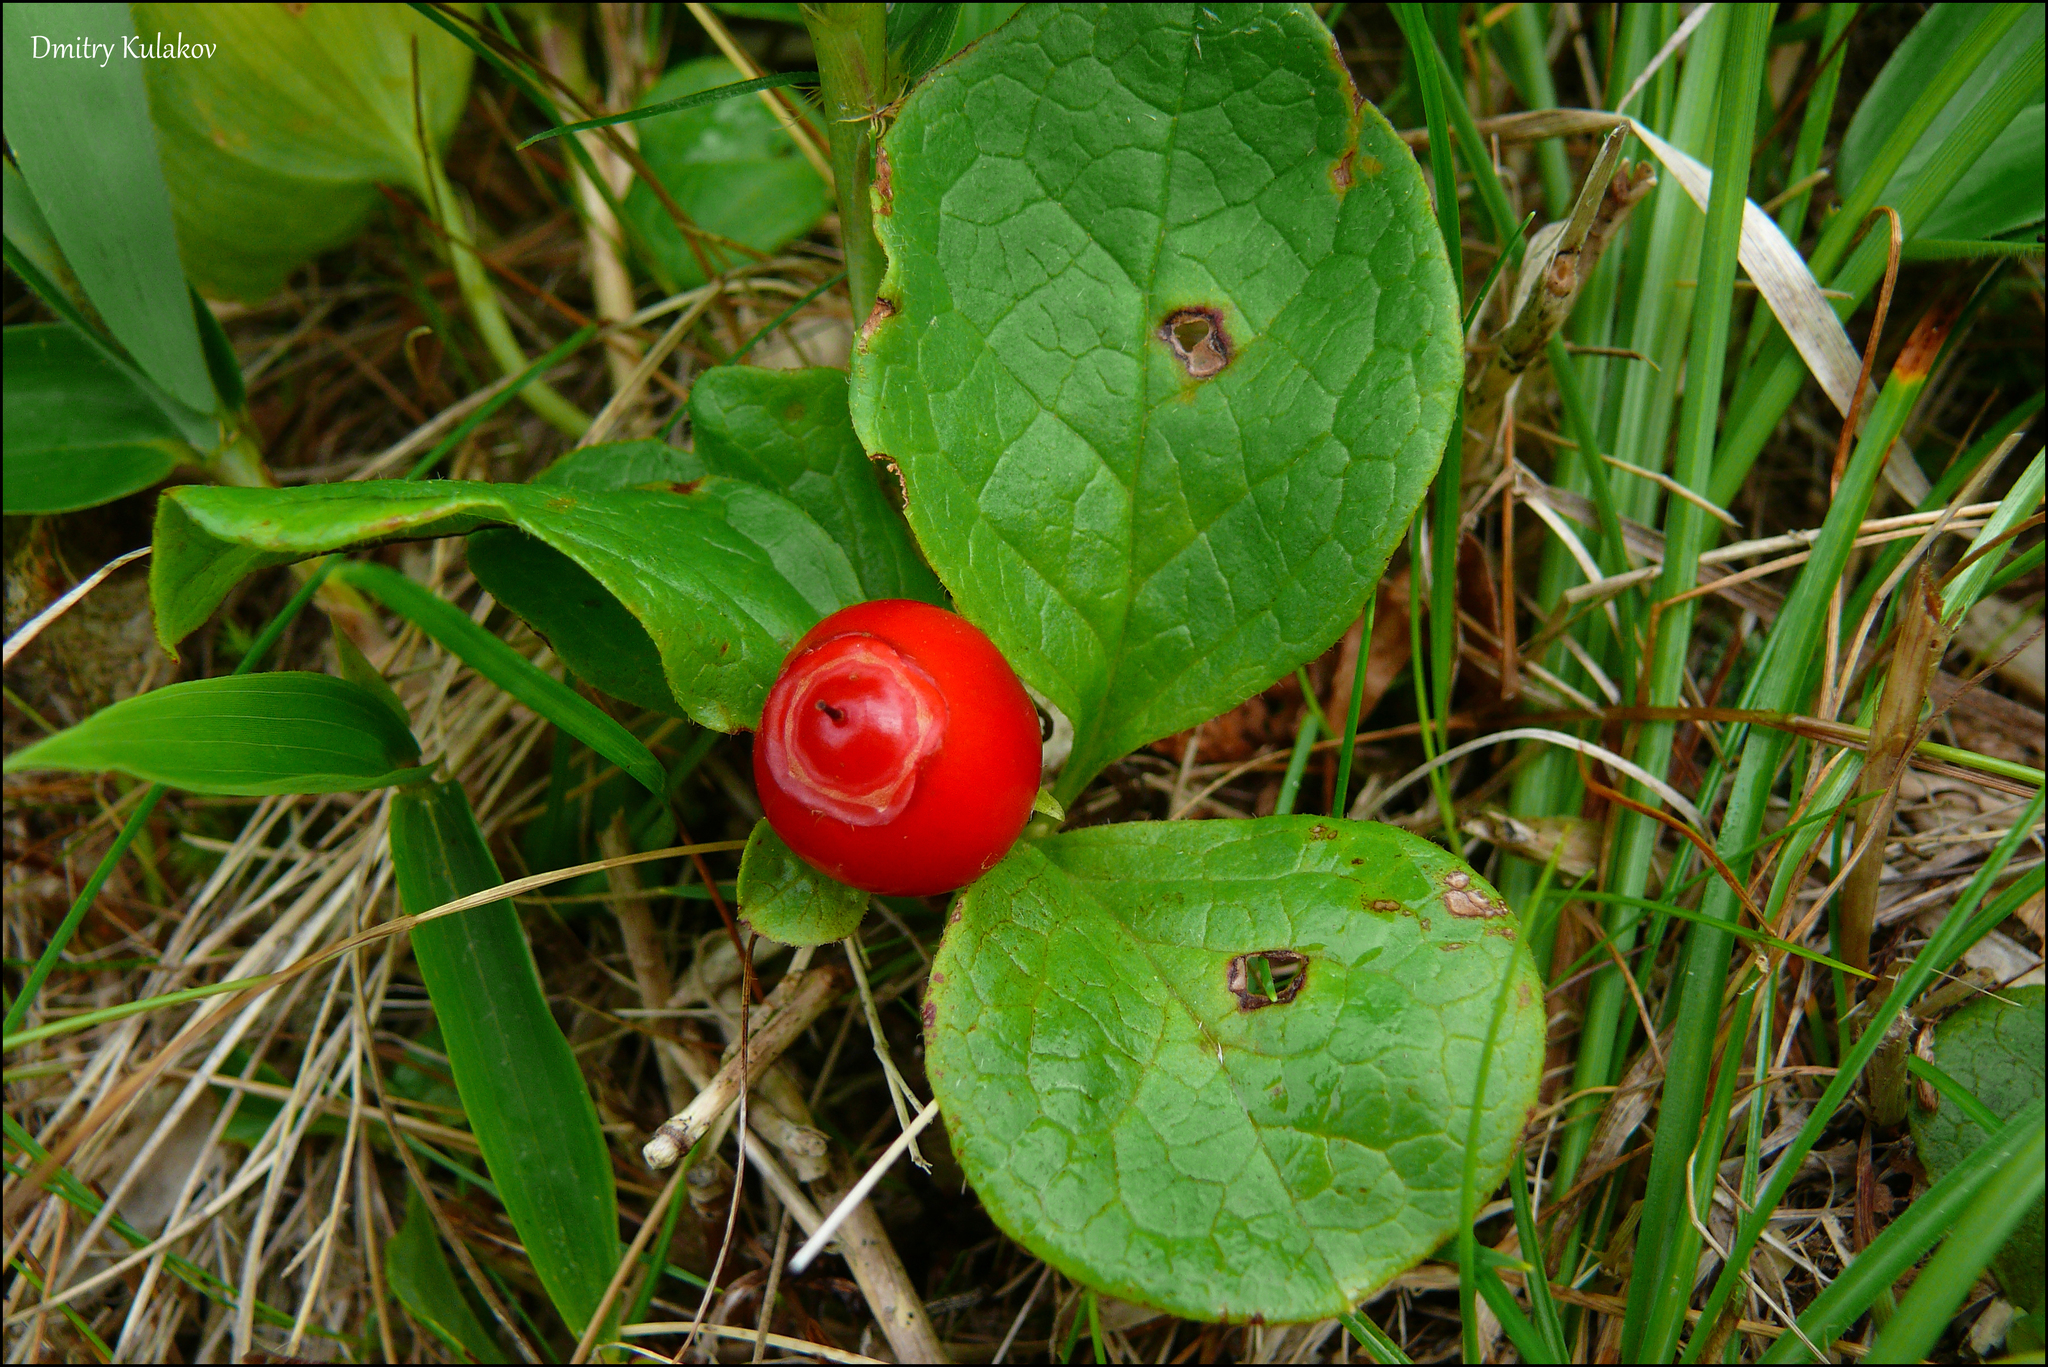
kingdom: Plantae
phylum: Tracheophyta
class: Magnoliopsida
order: Ericales
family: Ericaceae
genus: Vaccinium
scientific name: Vaccinium praestans
